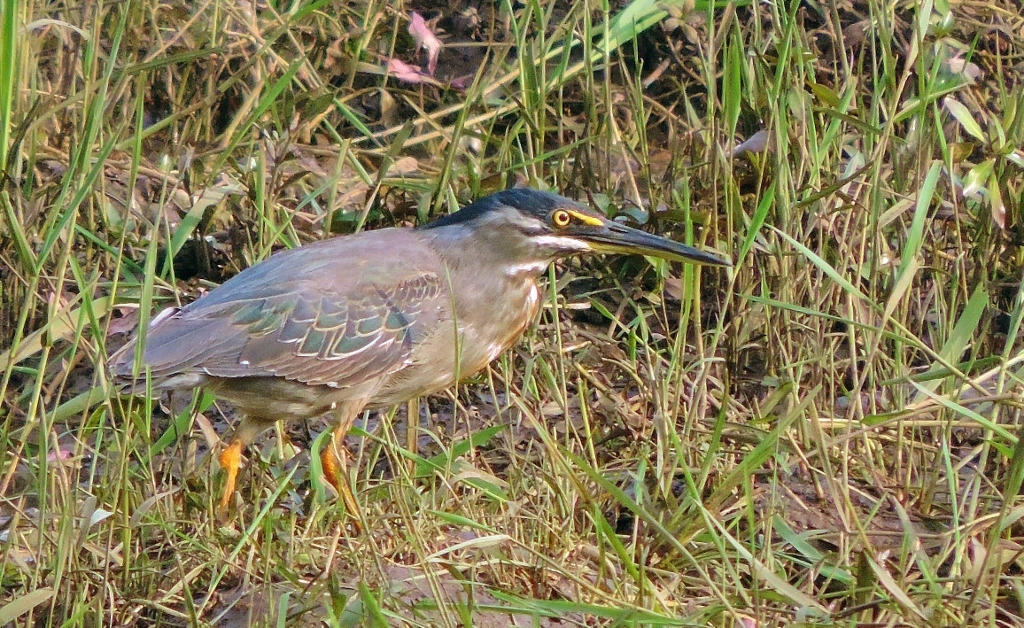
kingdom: Animalia
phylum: Chordata
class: Aves
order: Pelecaniformes
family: Ardeidae
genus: Butorides
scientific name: Butorides striata
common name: Striated heron
